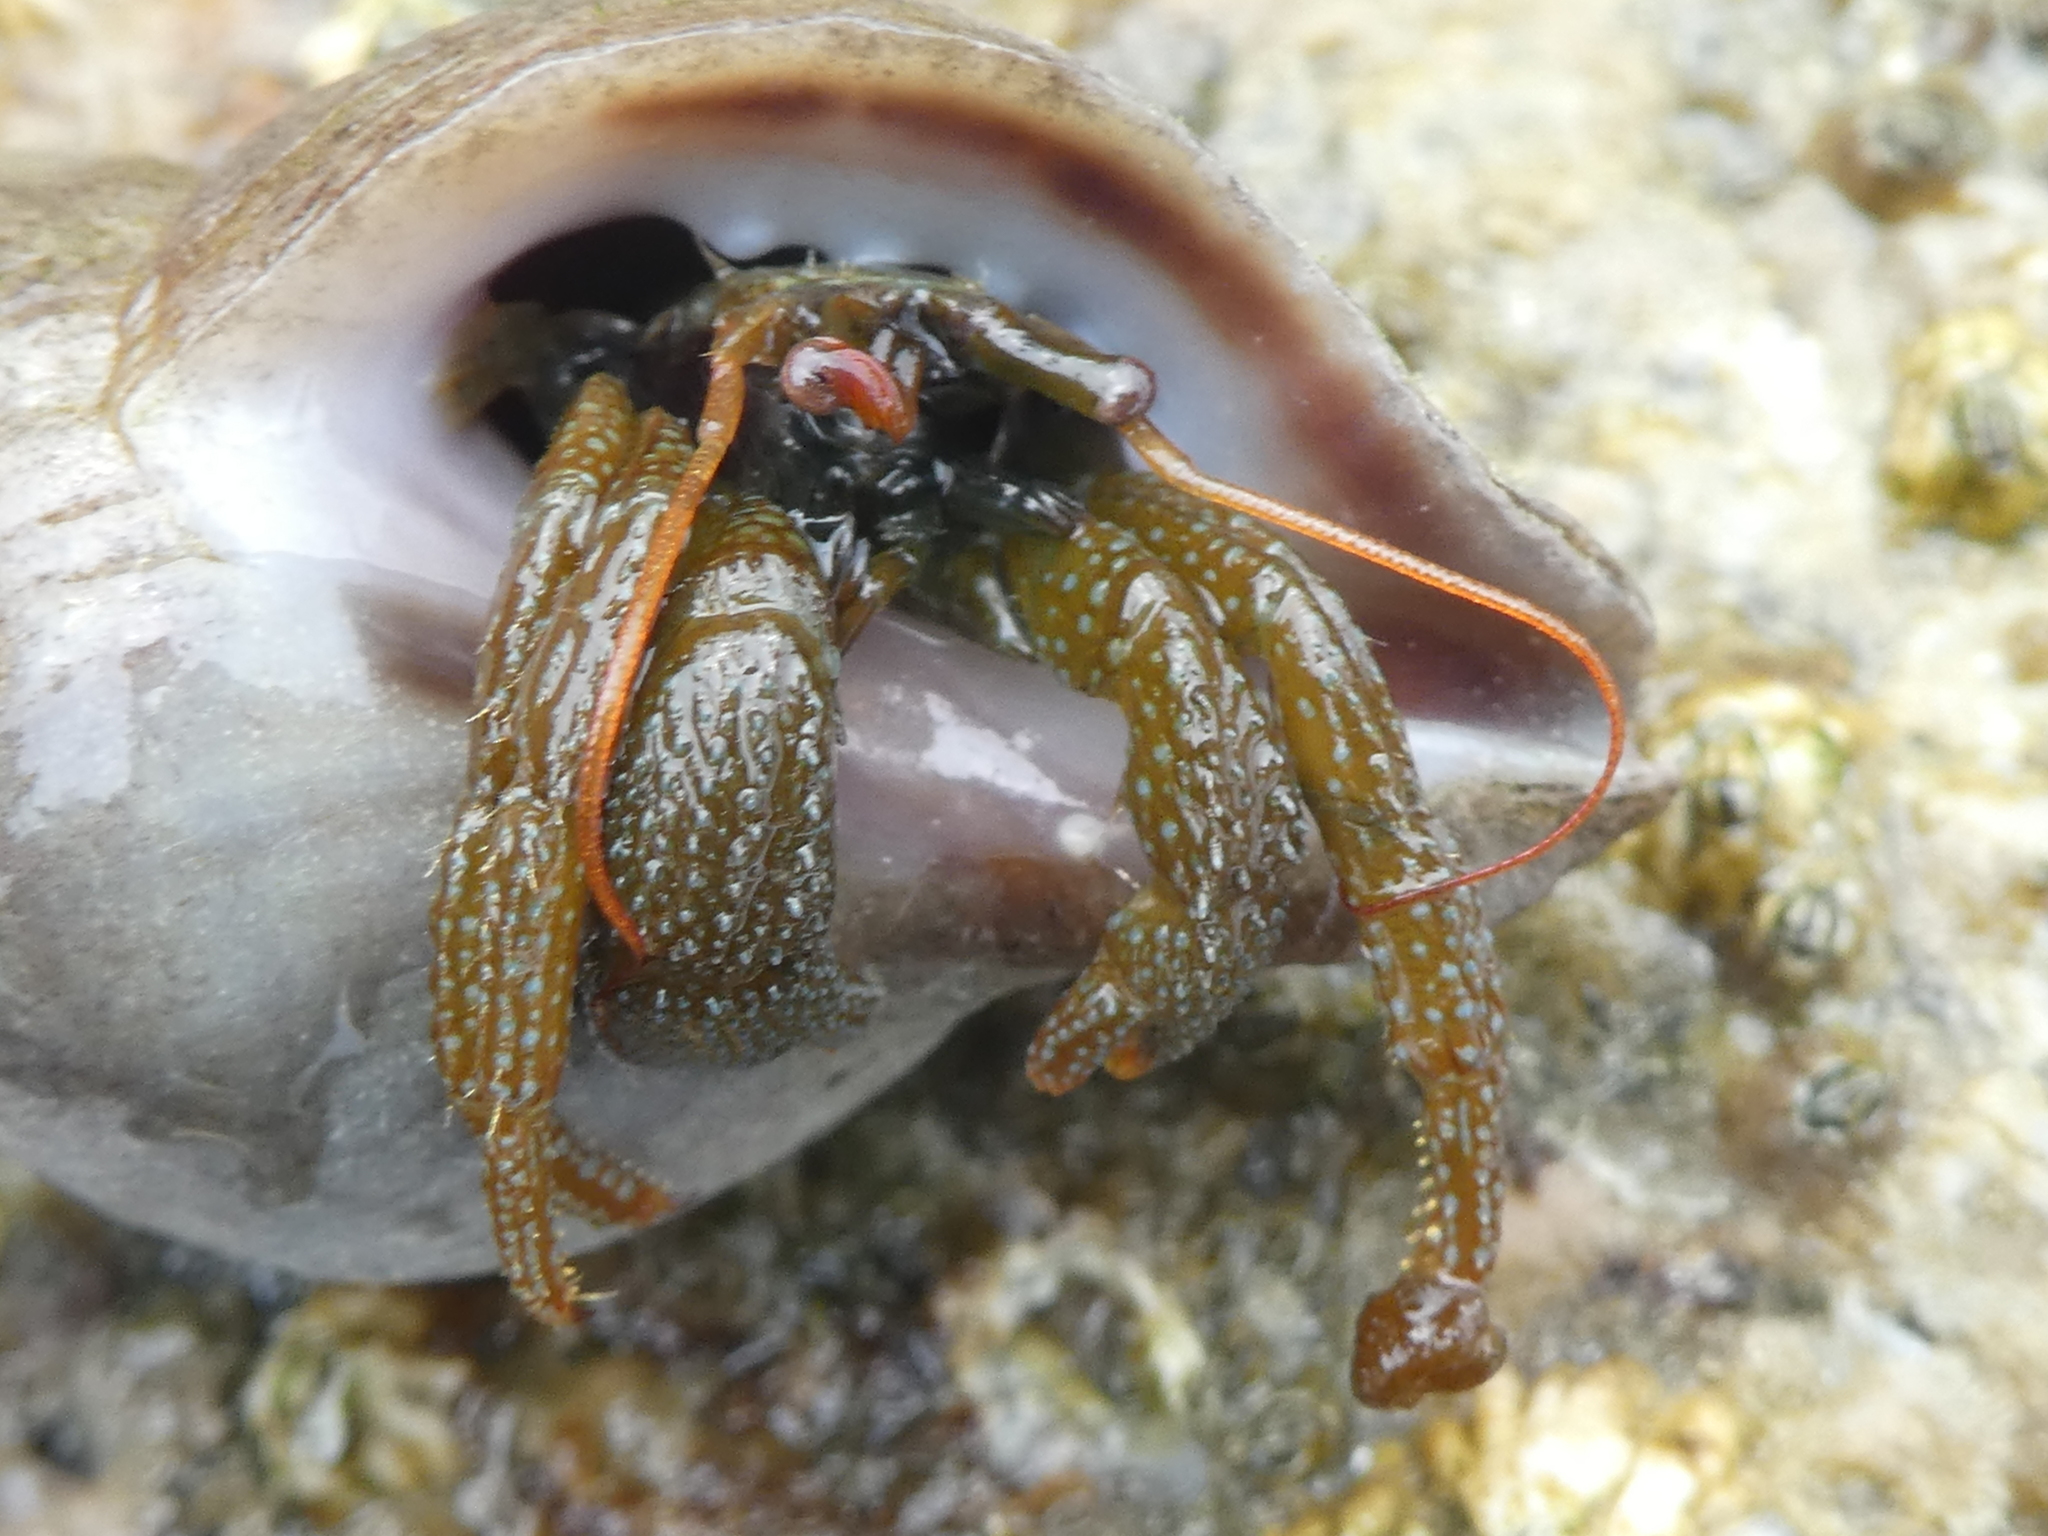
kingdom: Animalia
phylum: Arthropoda
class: Malacostraca
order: Decapoda
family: Paguridae
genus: Pagurus
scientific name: Pagurus granosimanus
